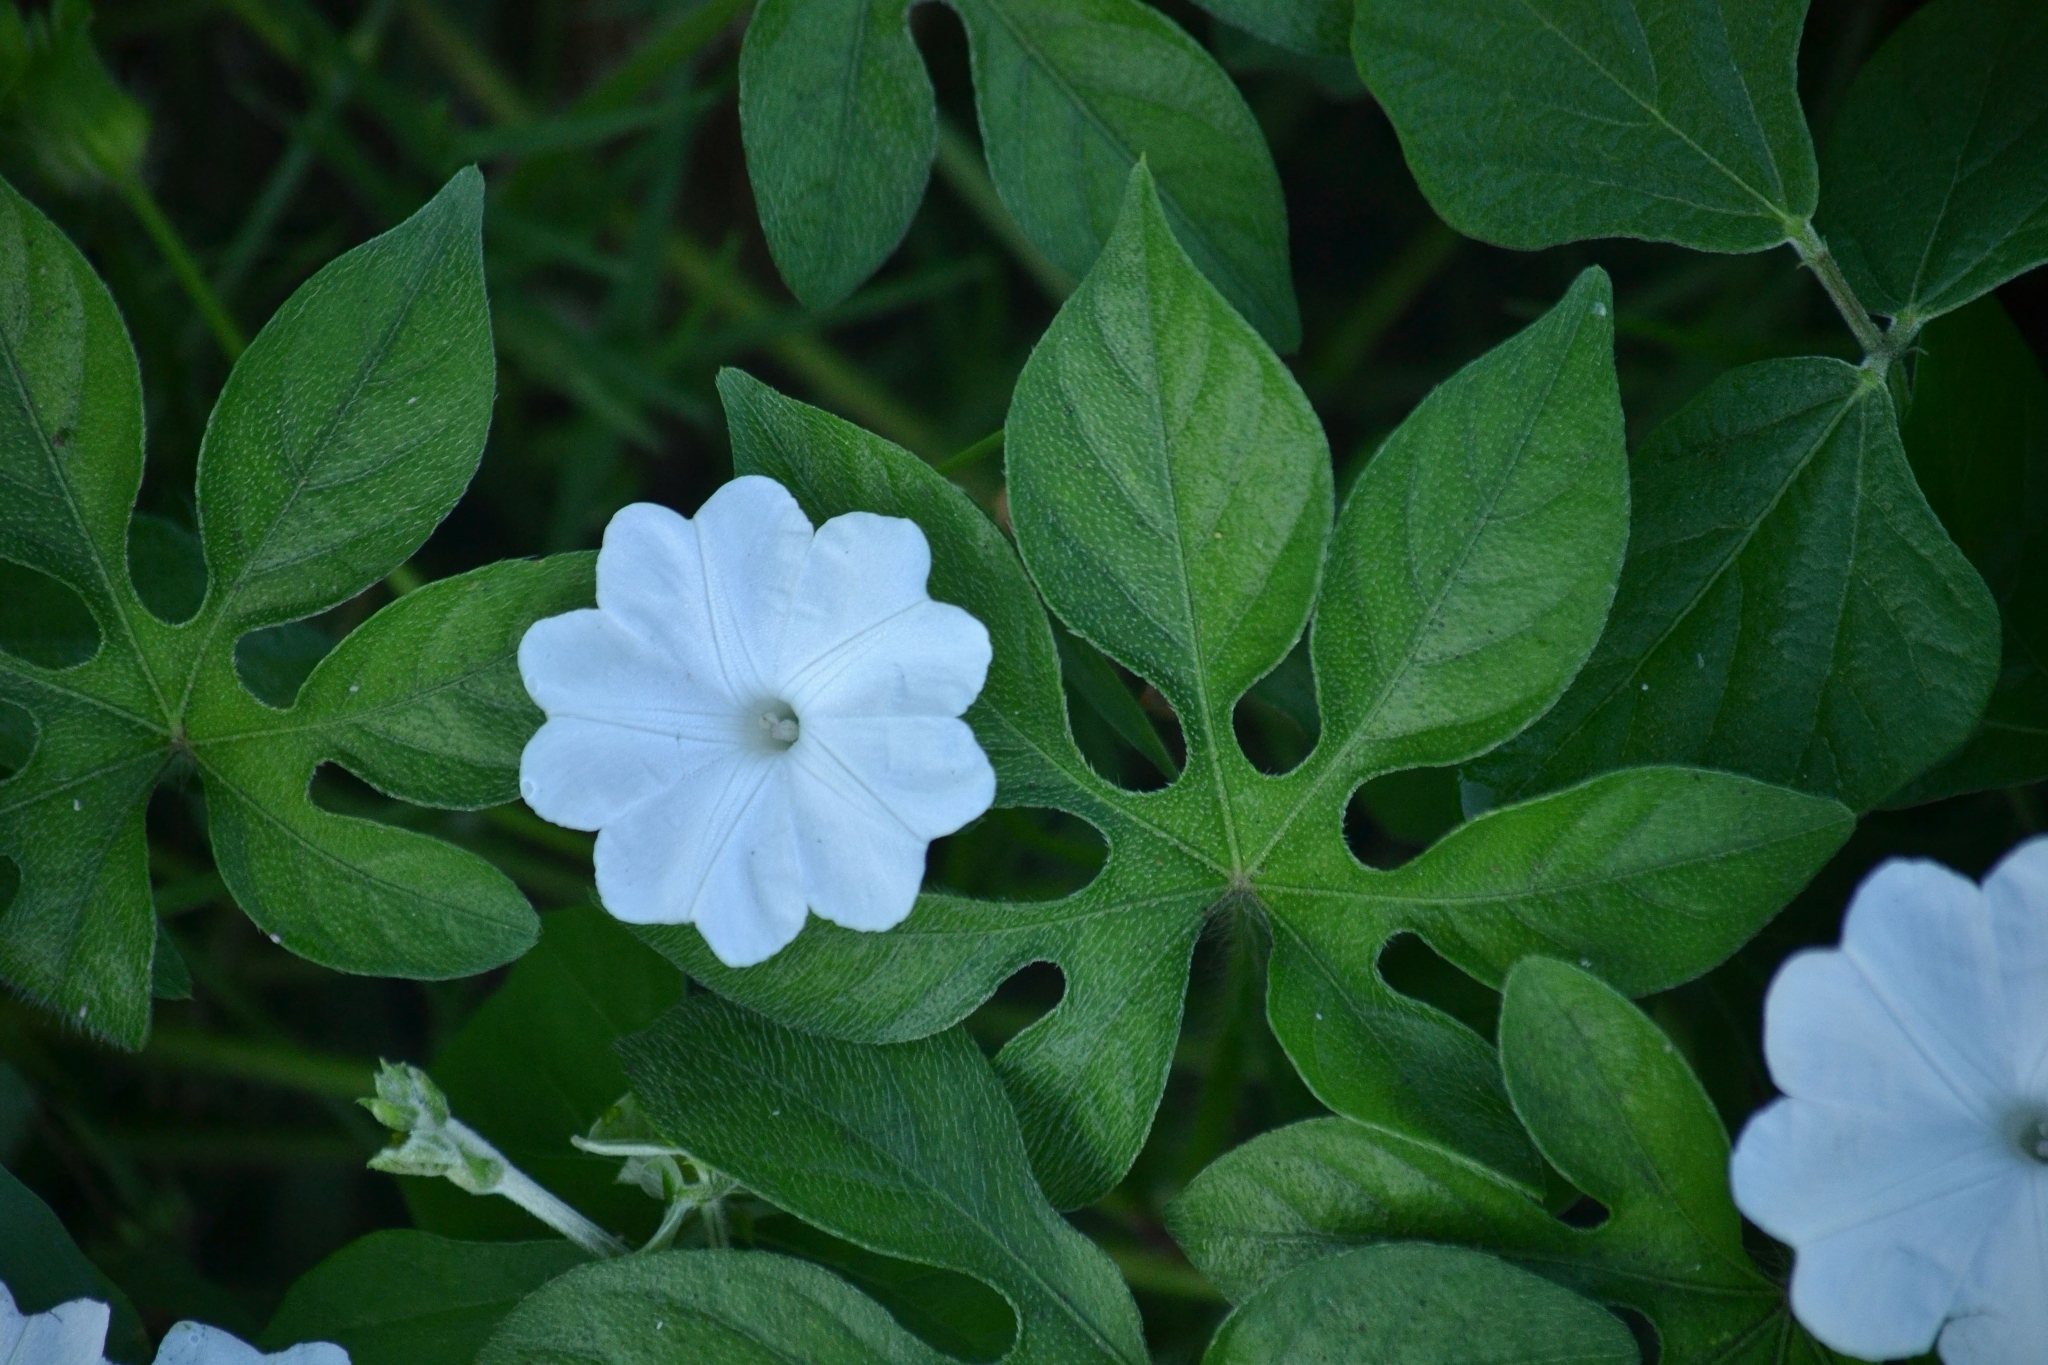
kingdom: Plantae
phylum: Tracheophyta
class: Magnoliopsida
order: Solanales
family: Convolvulaceae
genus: Ipomoea
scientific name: Ipomoea pes-tigridis
